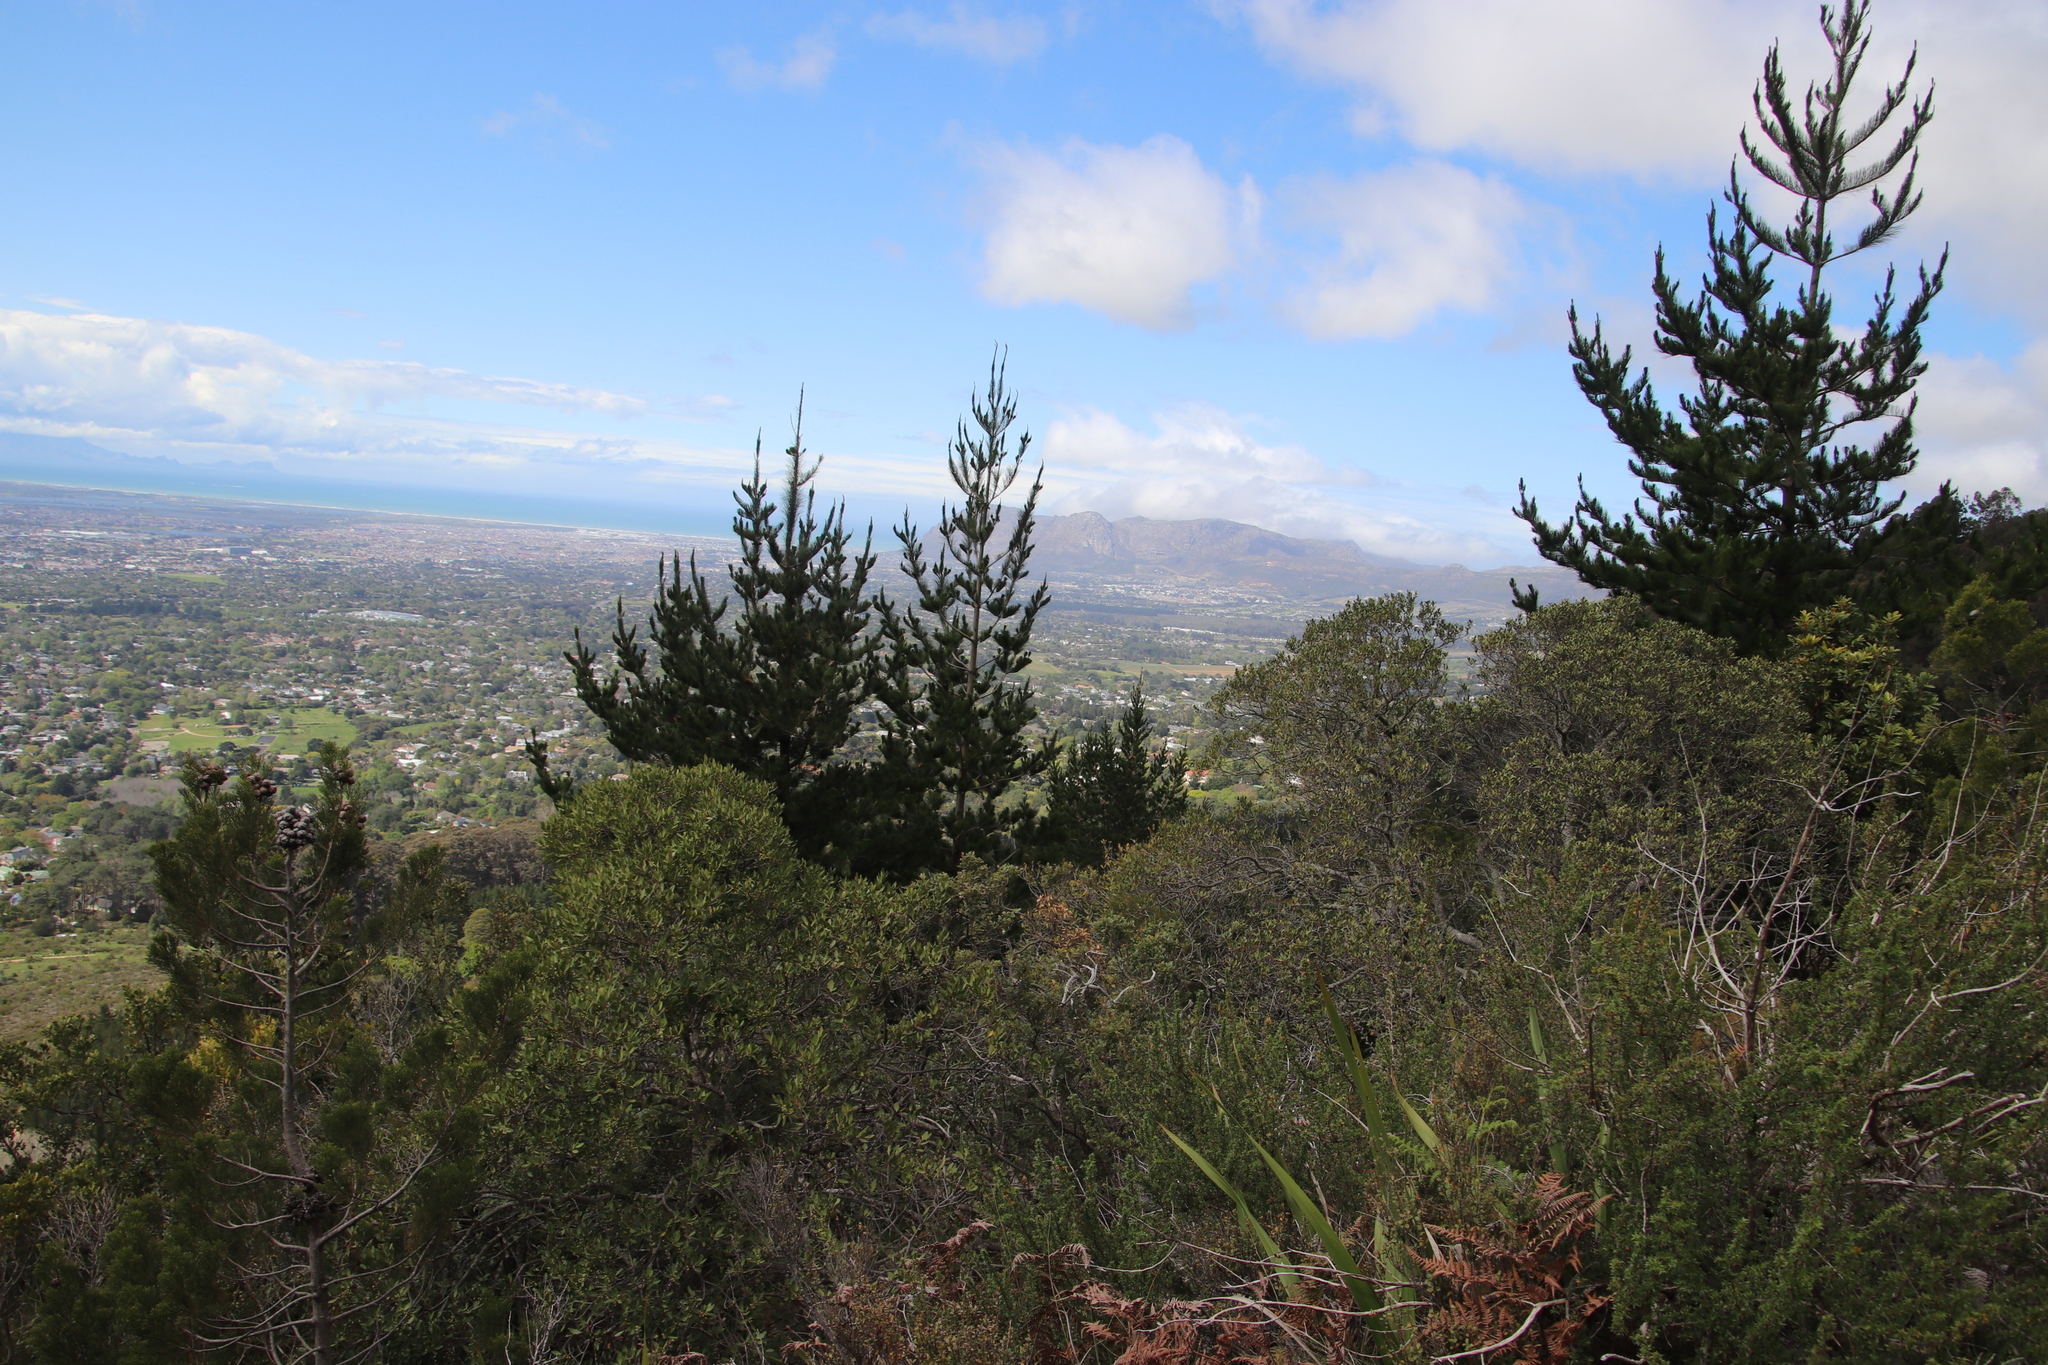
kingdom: Plantae
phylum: Tracheophyta
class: Pinopsida
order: Pinales
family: Pinaceae
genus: Pinus
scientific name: Pinus radiata
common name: Monterey pine
